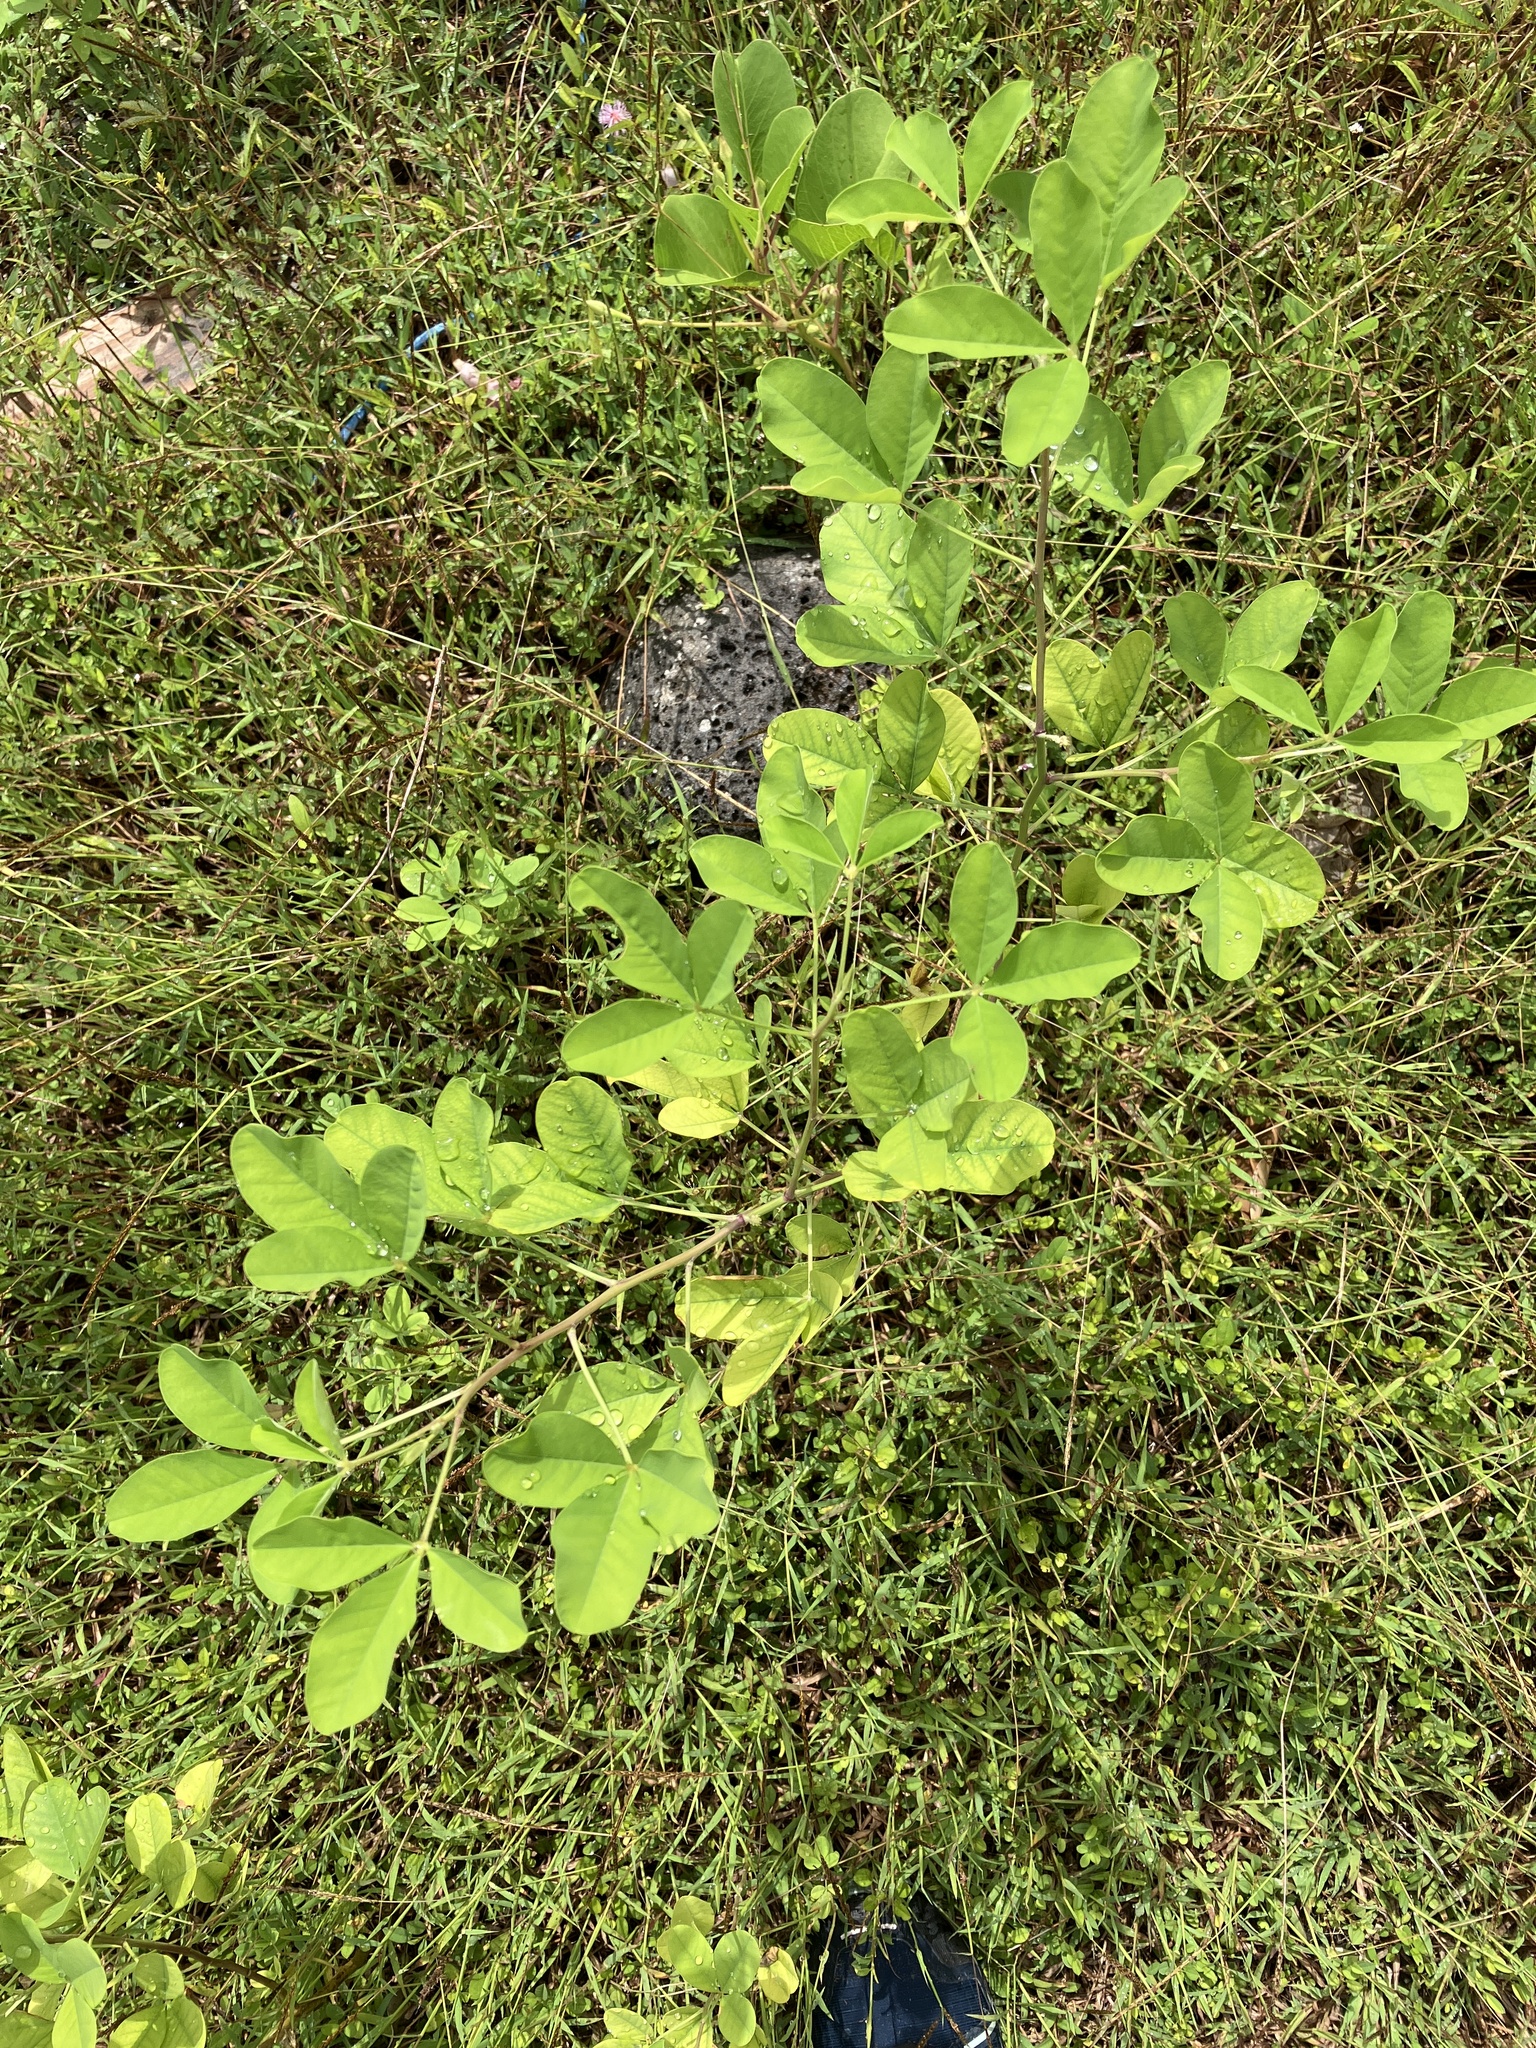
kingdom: Plantae
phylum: Tracheophyta
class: Magnoliopsida
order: Fabales
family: Fabaceae
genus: Crotalaria
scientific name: Crotalaria pallida
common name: Smooth rattlebox
